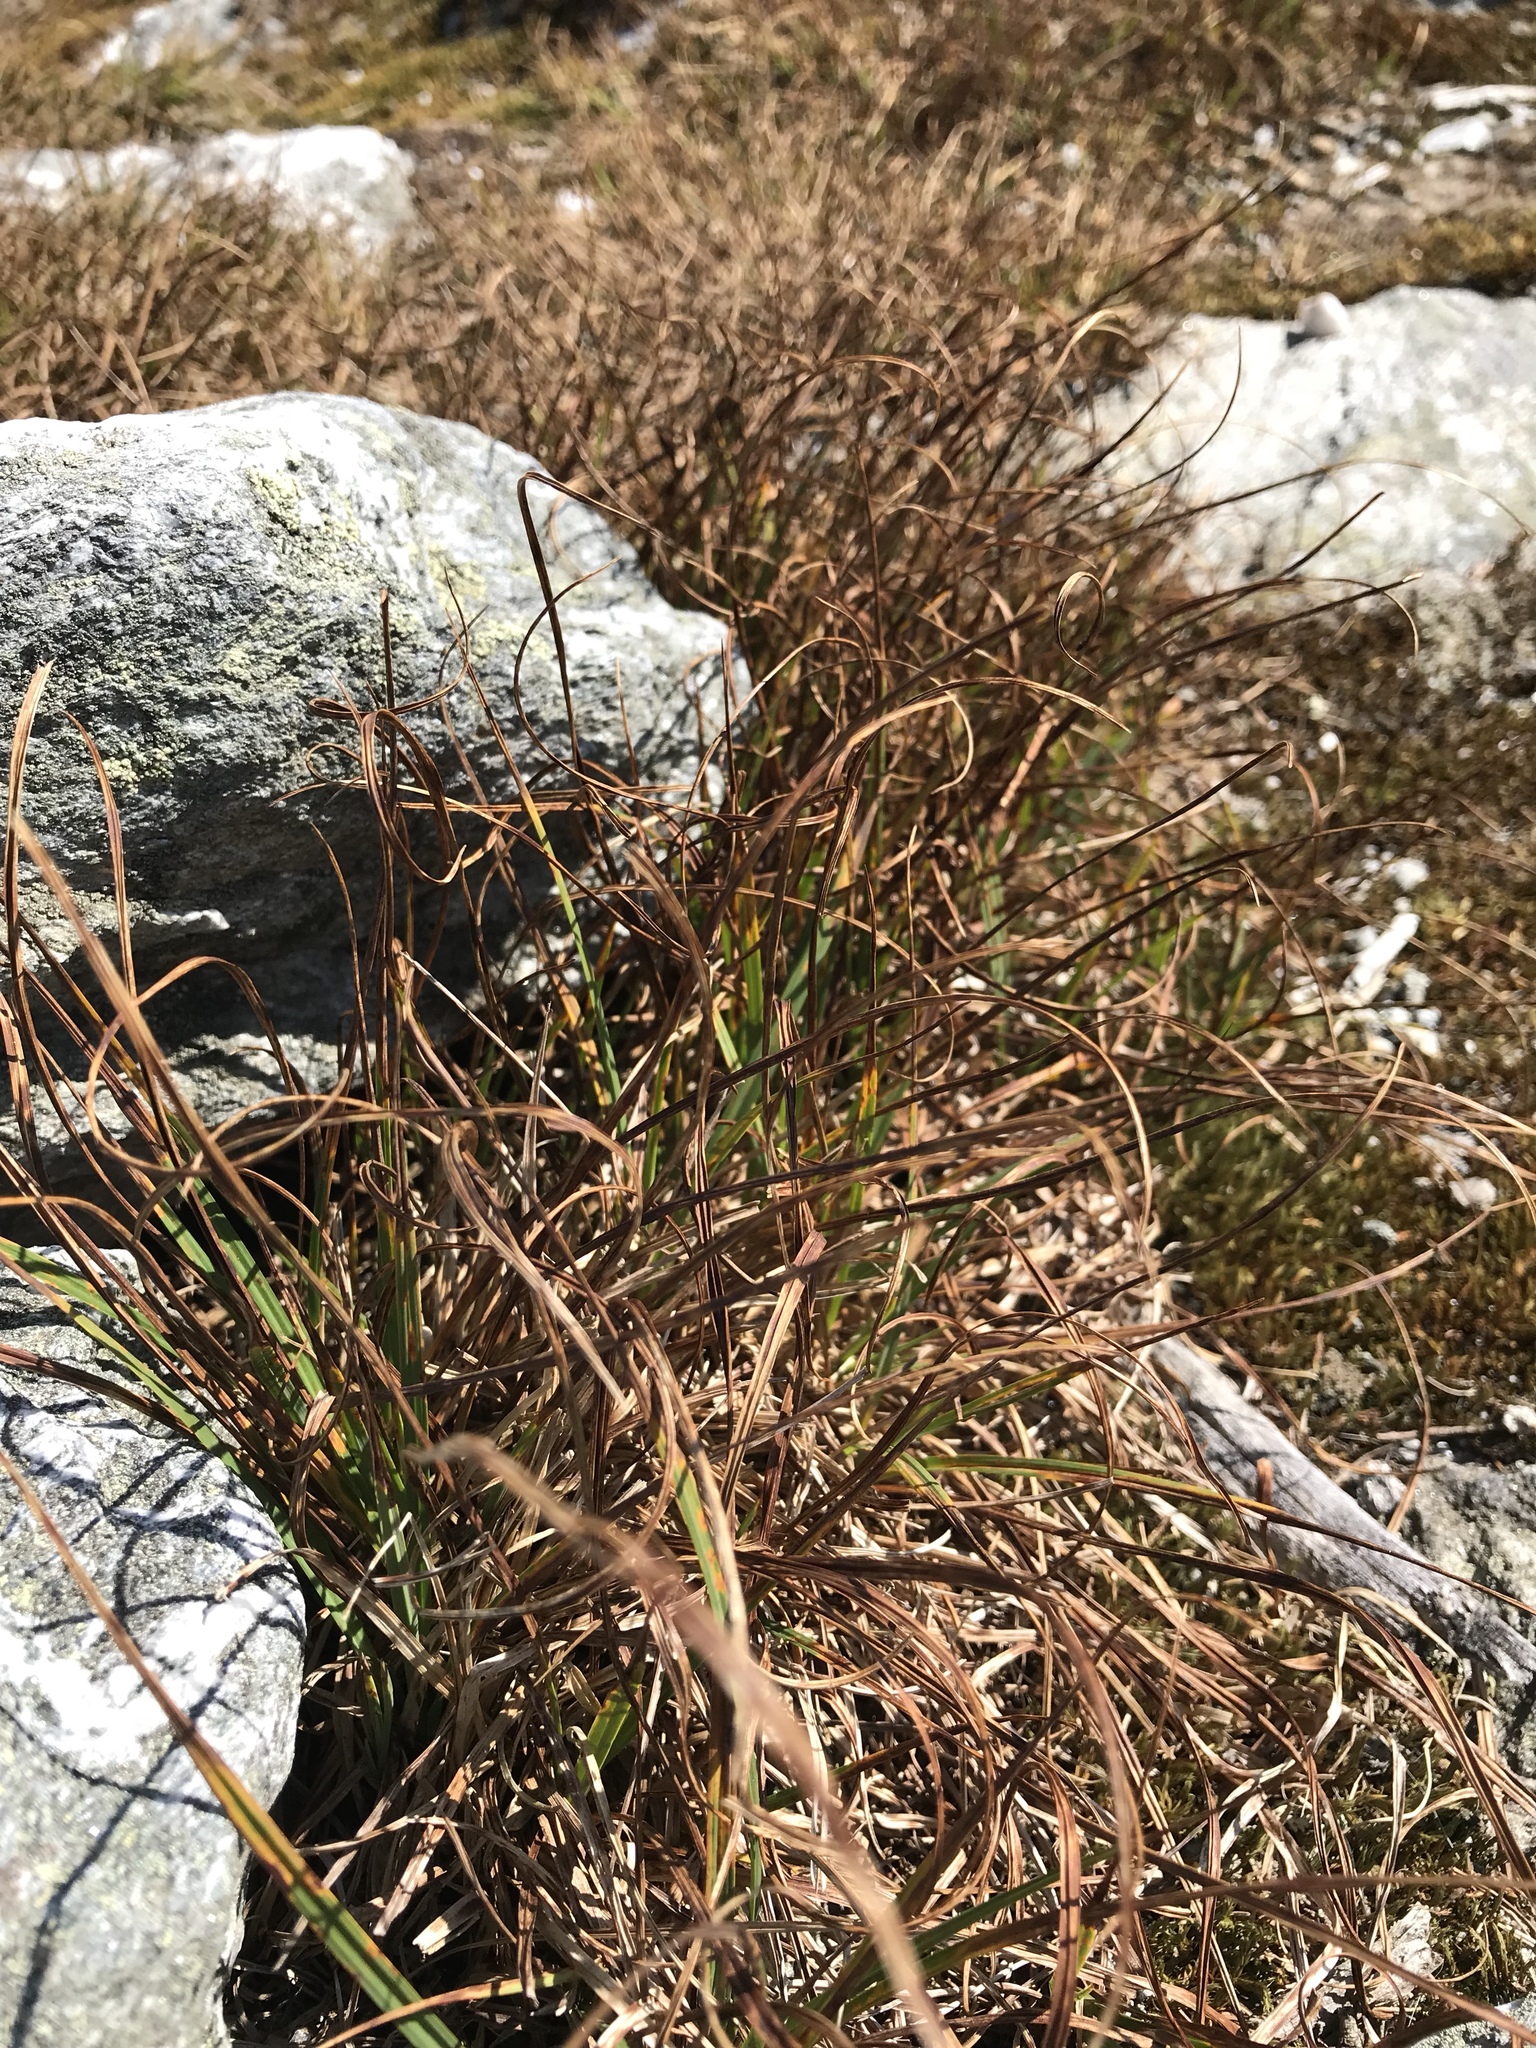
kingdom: Plantae
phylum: Tracheophyta
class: Liliopsida
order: Poales
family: Cyperaceae
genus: Carex
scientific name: Carex bigelowii
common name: Stiff sedge
